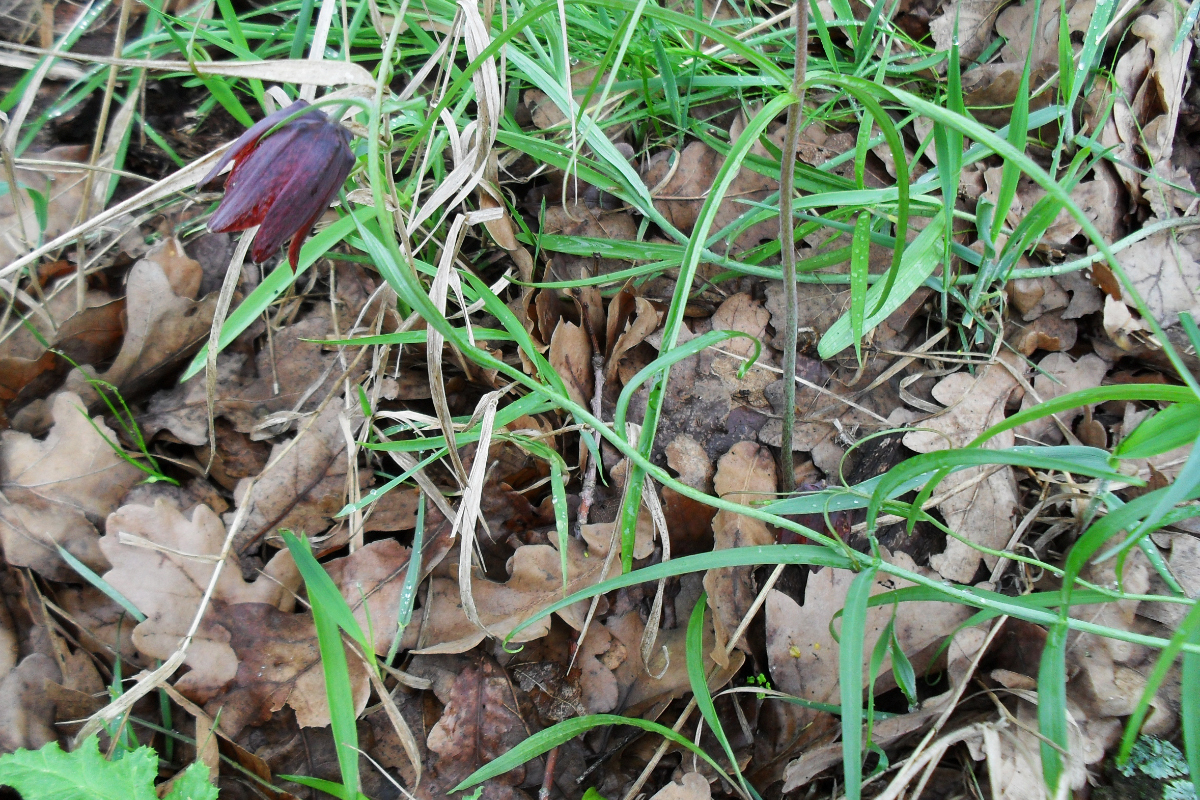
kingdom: Plantae
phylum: Tracheophyta
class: Liliopsida
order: Liliales
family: Liliaceae
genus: Fritillaria
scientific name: Fritillaria ruthenica
